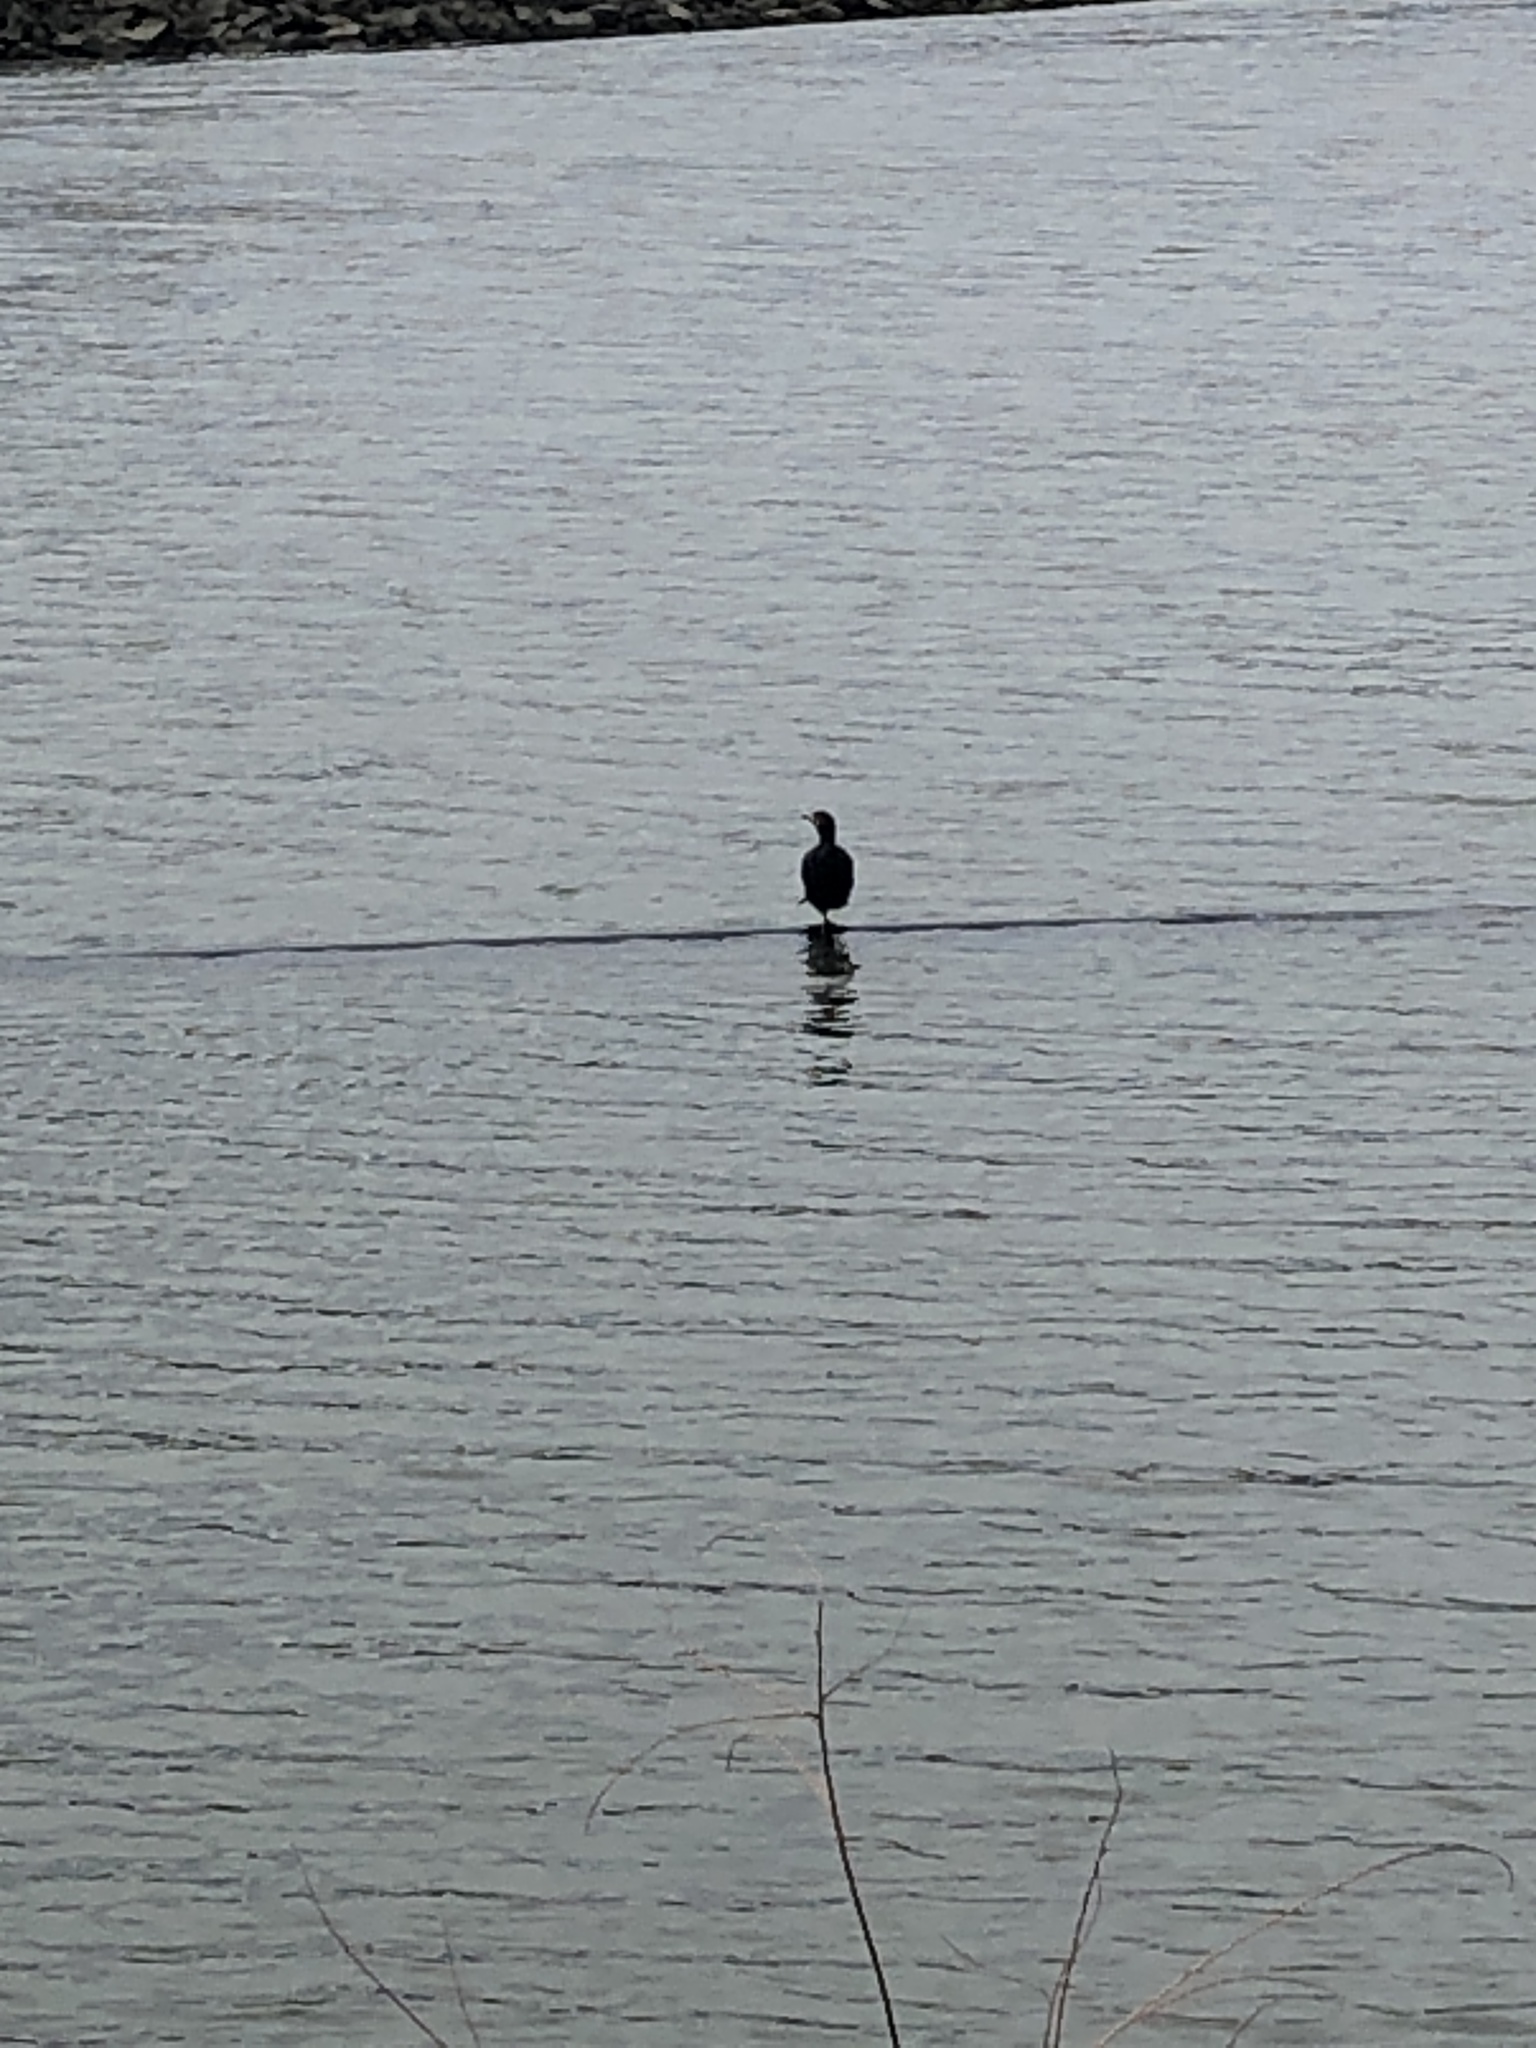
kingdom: Animalia
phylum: Chordata
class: Aves
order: Suliformes
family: Phalacrocoracidae
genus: Phalacrocorax
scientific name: Phalacrocorax auritus
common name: Double-crested cormorant
